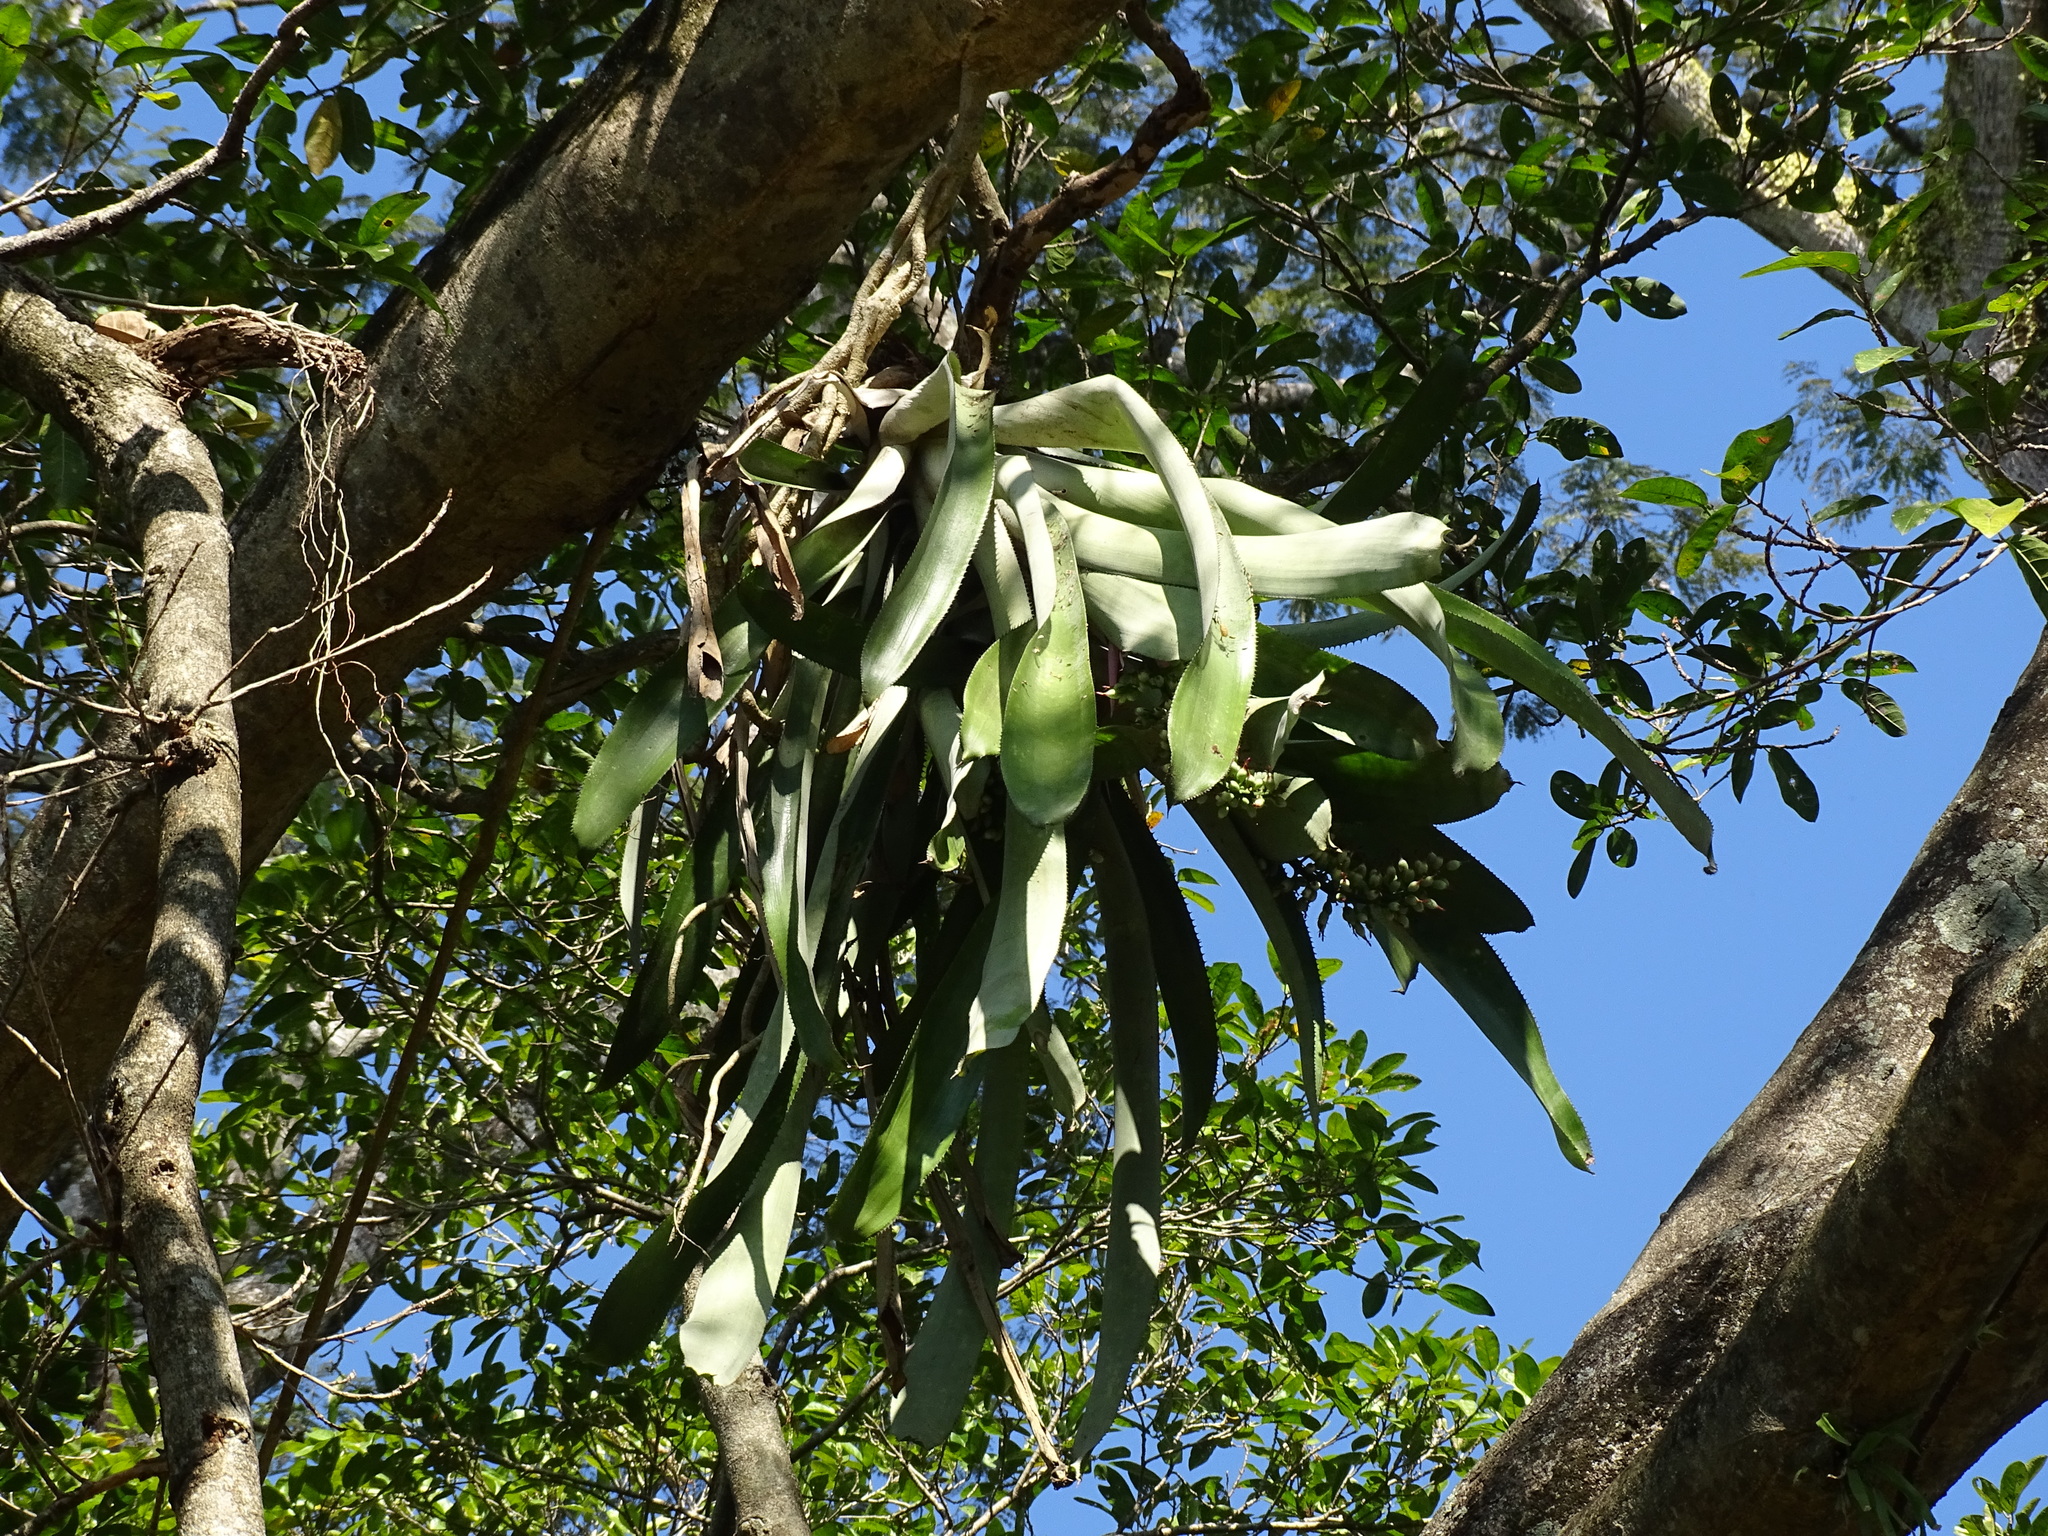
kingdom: Plantae
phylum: Tracheophyta
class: Liliopsida
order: Poales
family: Bromeliaceae
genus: Aechmea
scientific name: Aechmea matudae
